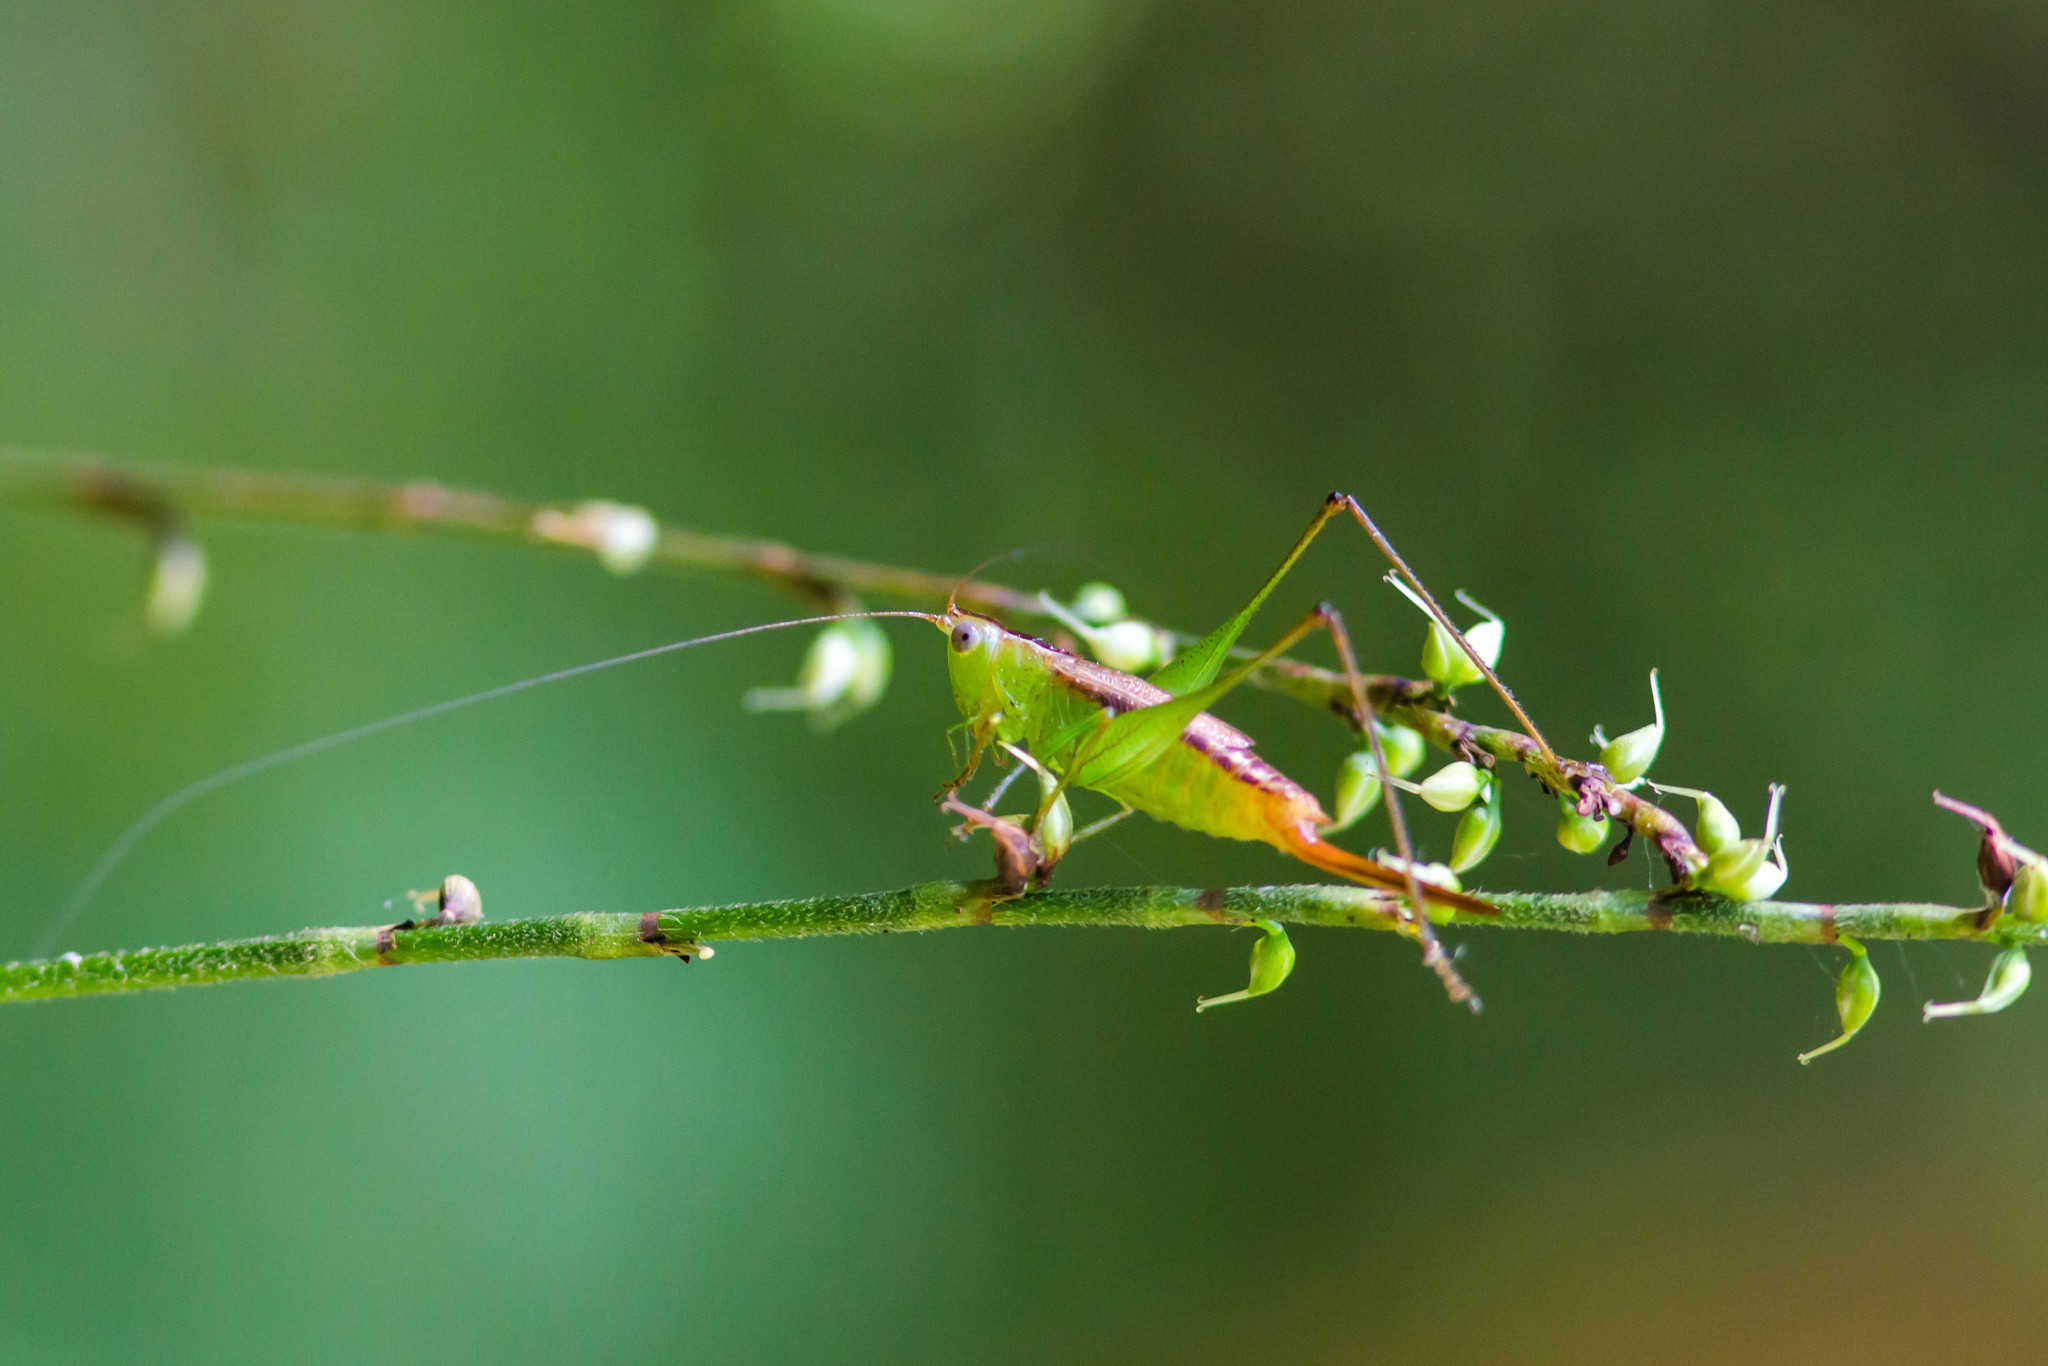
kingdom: Animalia
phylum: Arthropoda
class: Insecta
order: Orthoptera
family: Tettigoniidae
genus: Conocephalus
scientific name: Conocephalus brevipennis
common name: Short-winged meadow katydid
